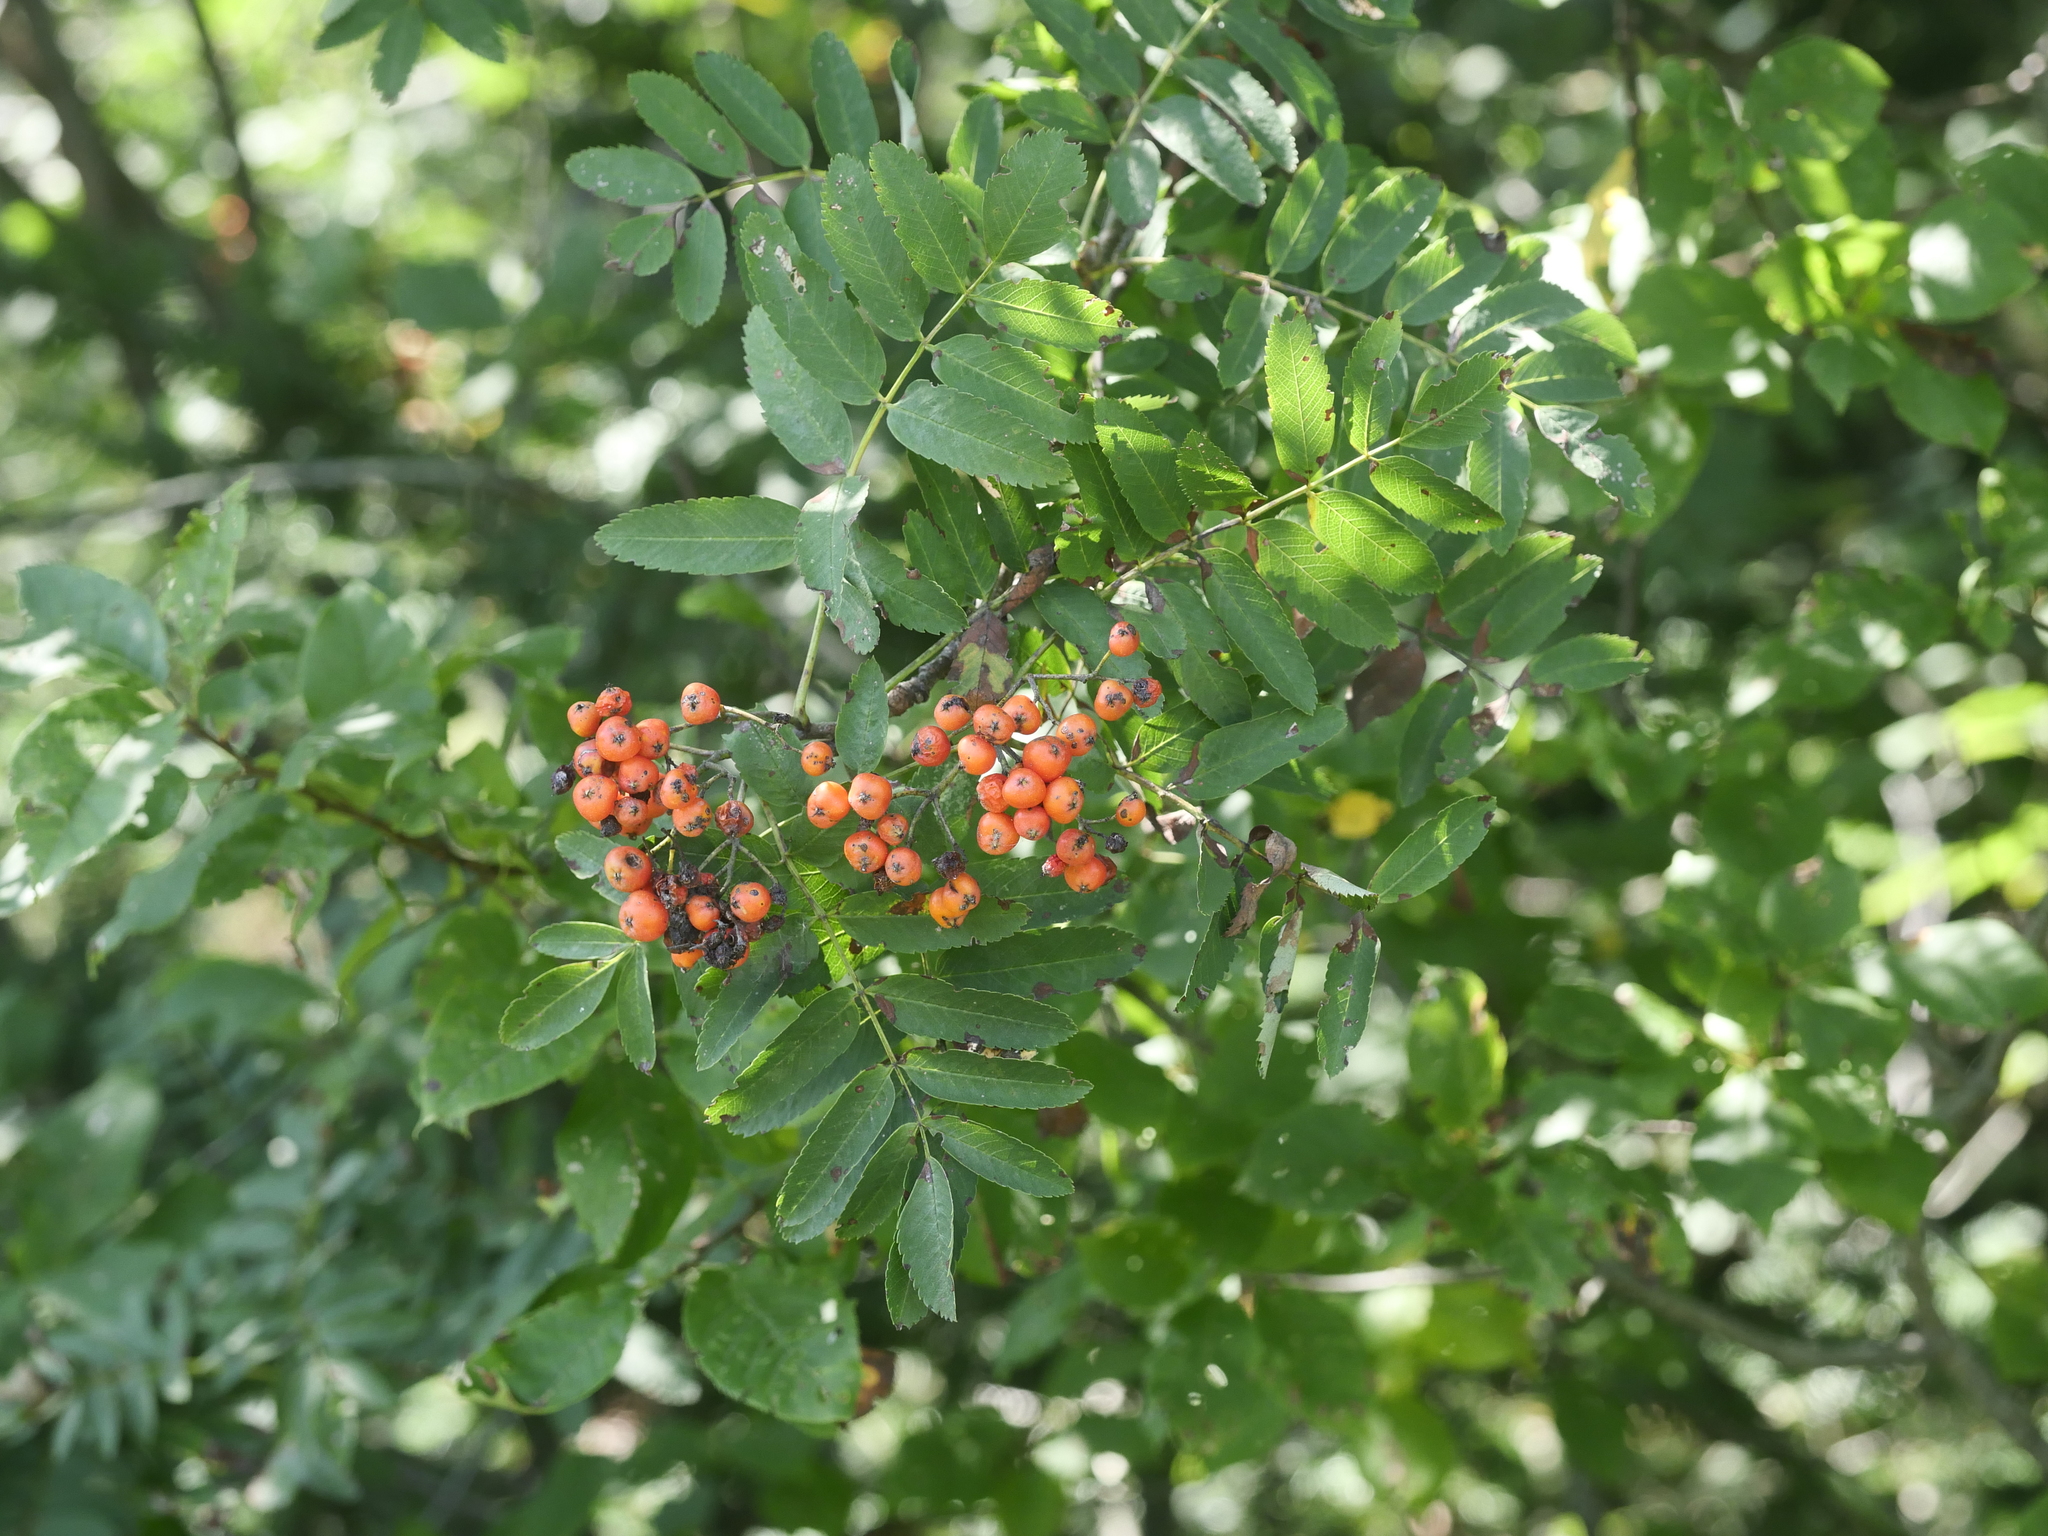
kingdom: Plantae
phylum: Tracheophyta
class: Magnoliopsida
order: Rosales
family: Rosaceae
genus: Sorbus
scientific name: Sorbus aucuparia
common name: Rowan
